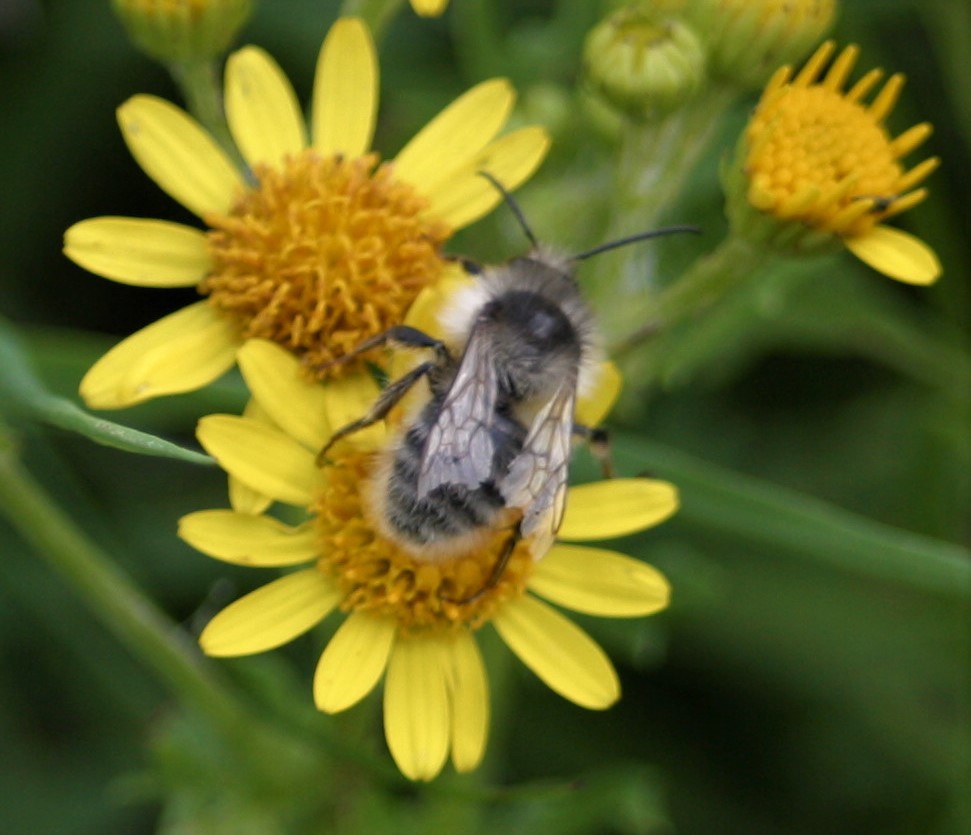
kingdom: Animalia
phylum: Arthropoda
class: Insecta
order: Hymenoptera
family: Apidae
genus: Bombus
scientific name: Bombus sylvarum
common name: Shrill carder bee
